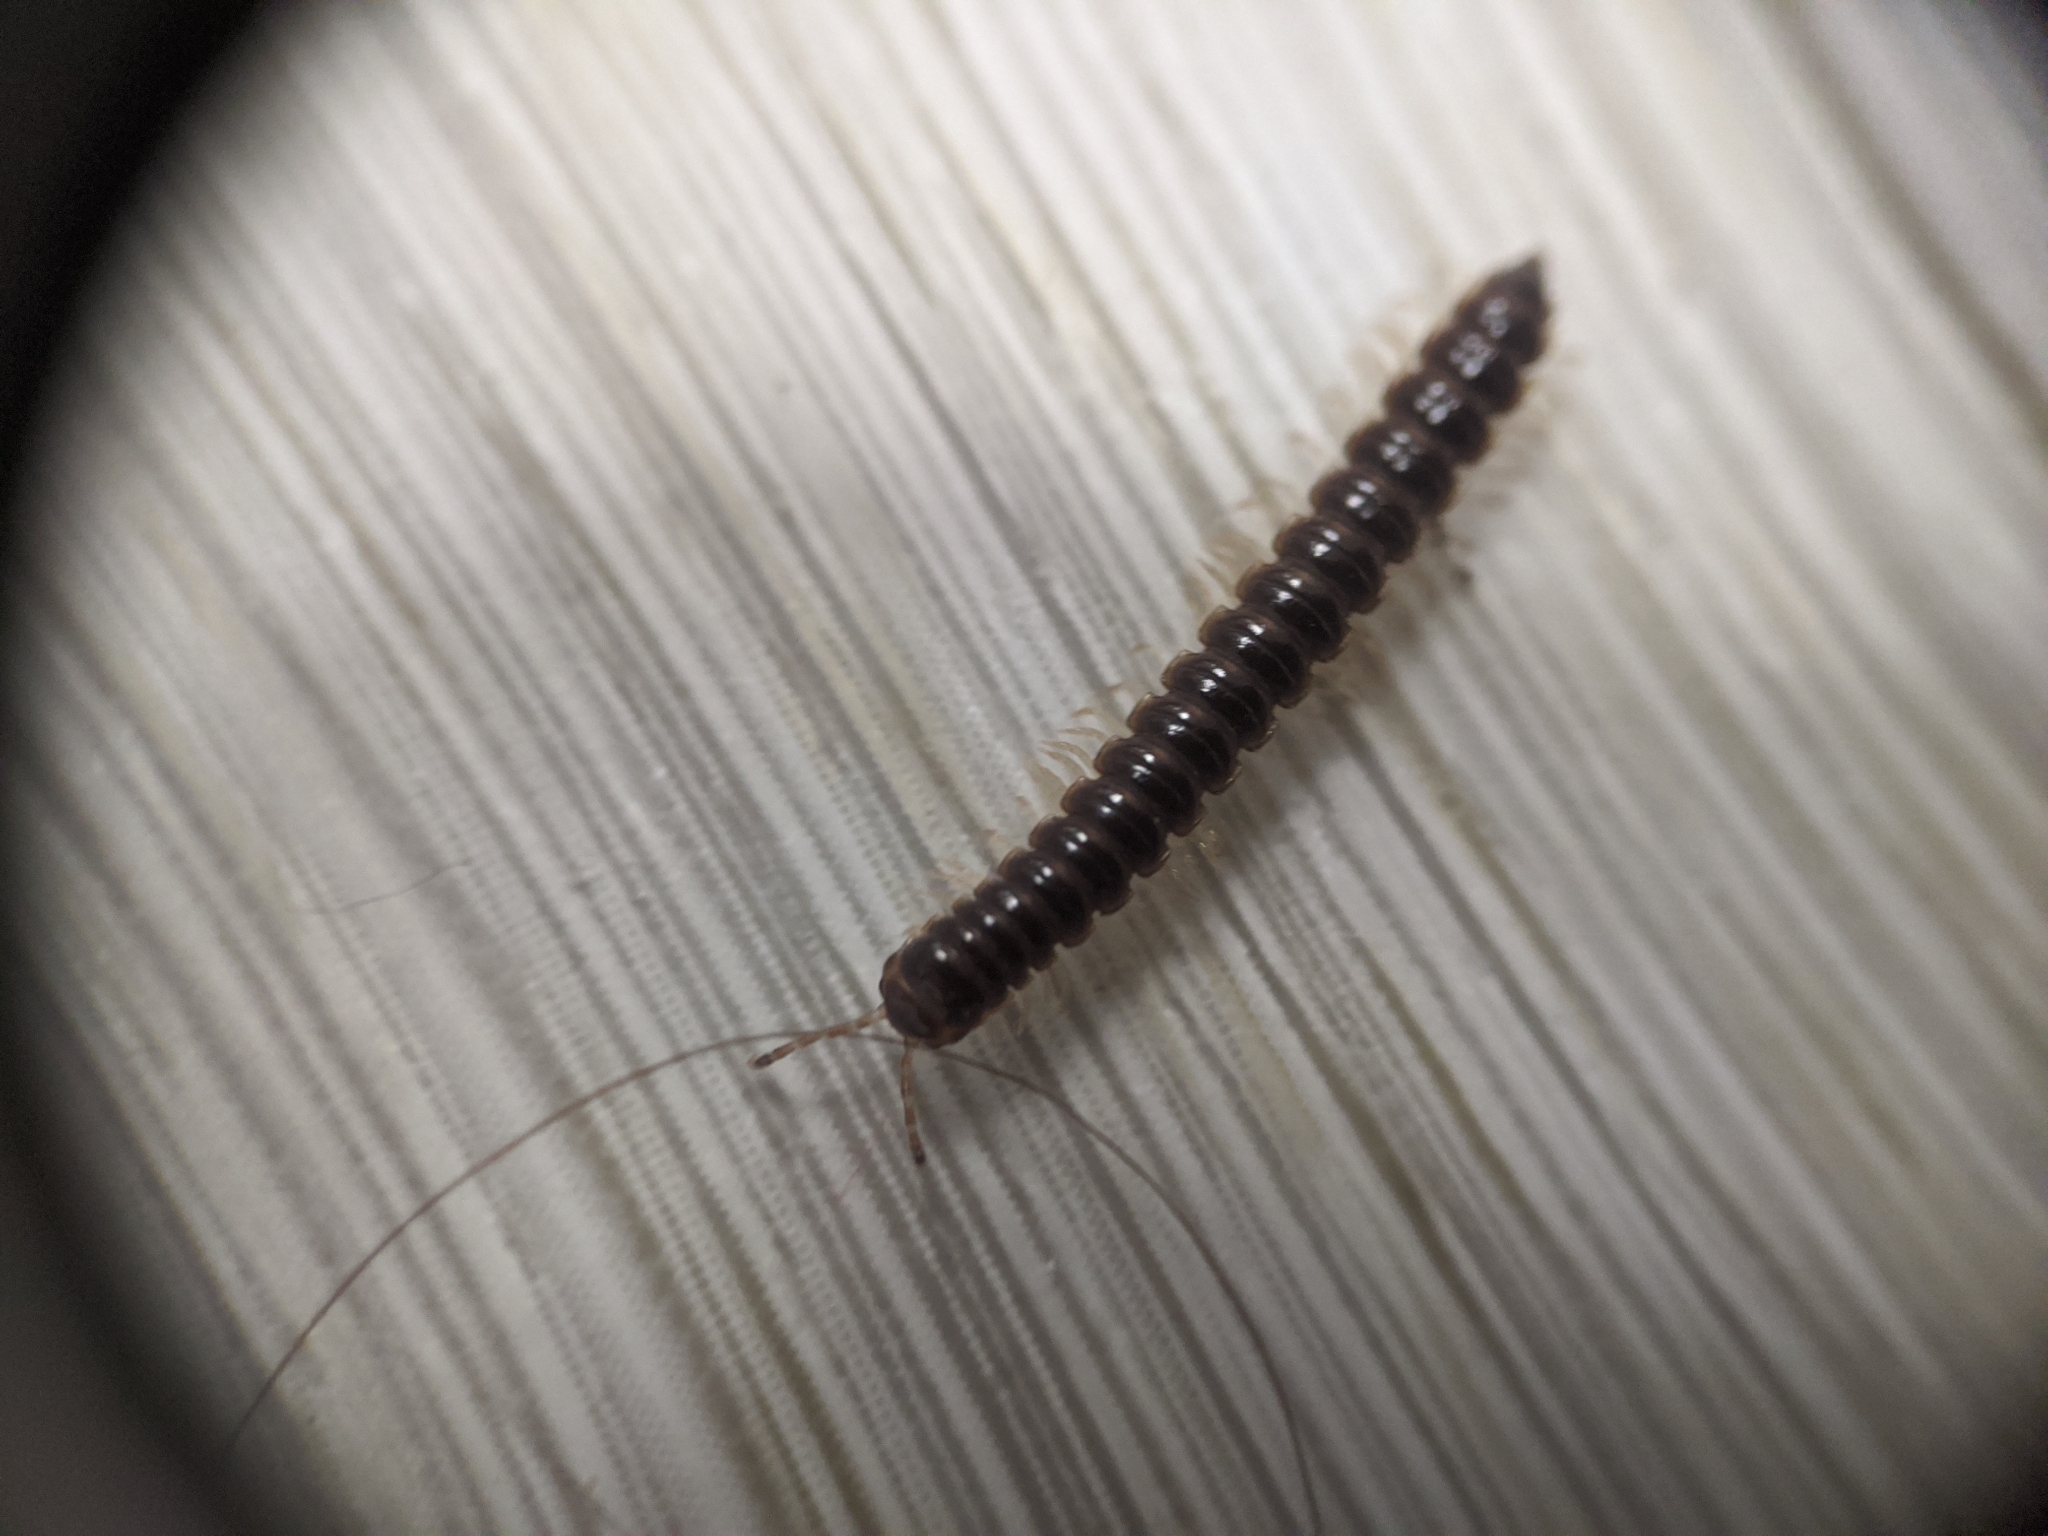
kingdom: Animalia
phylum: Arthropoda
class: Diplopoda
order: Polydesmida
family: Paradoxosomatidae
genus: Oxidus
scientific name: Oxidus gracilis
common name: Greenhouse millipede
